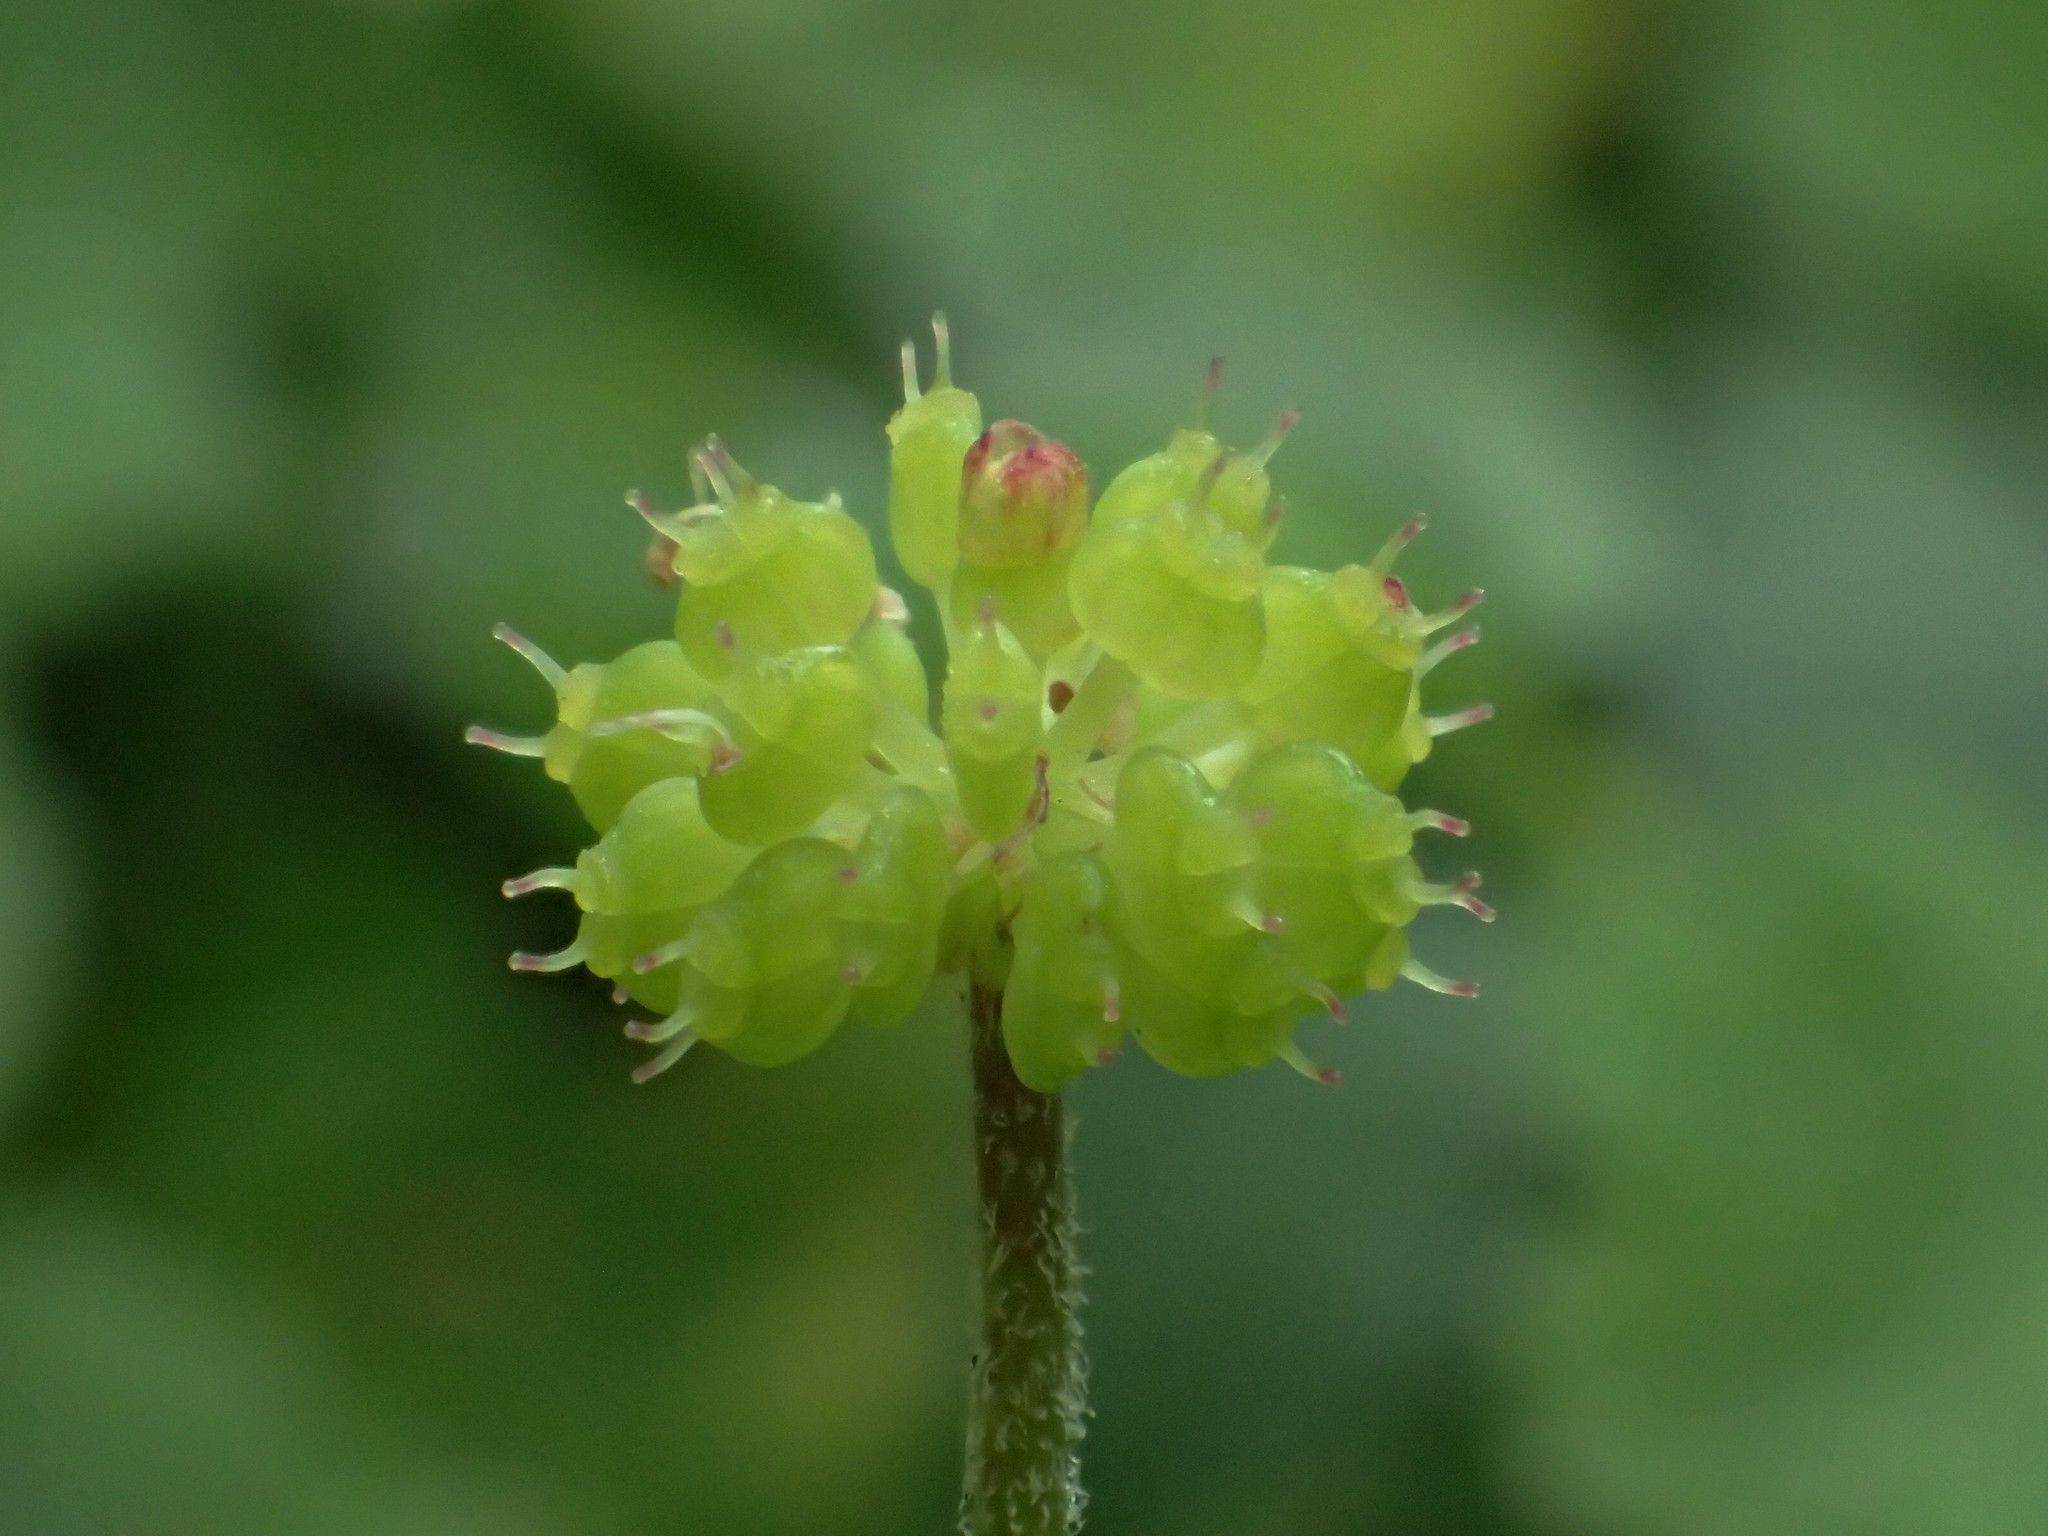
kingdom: Plantae
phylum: Tracheophyta
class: Magnoliopsida
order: Apiales
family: Araliaceae
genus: Hydrocotyle
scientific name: Hydrocotyle nepalensis
